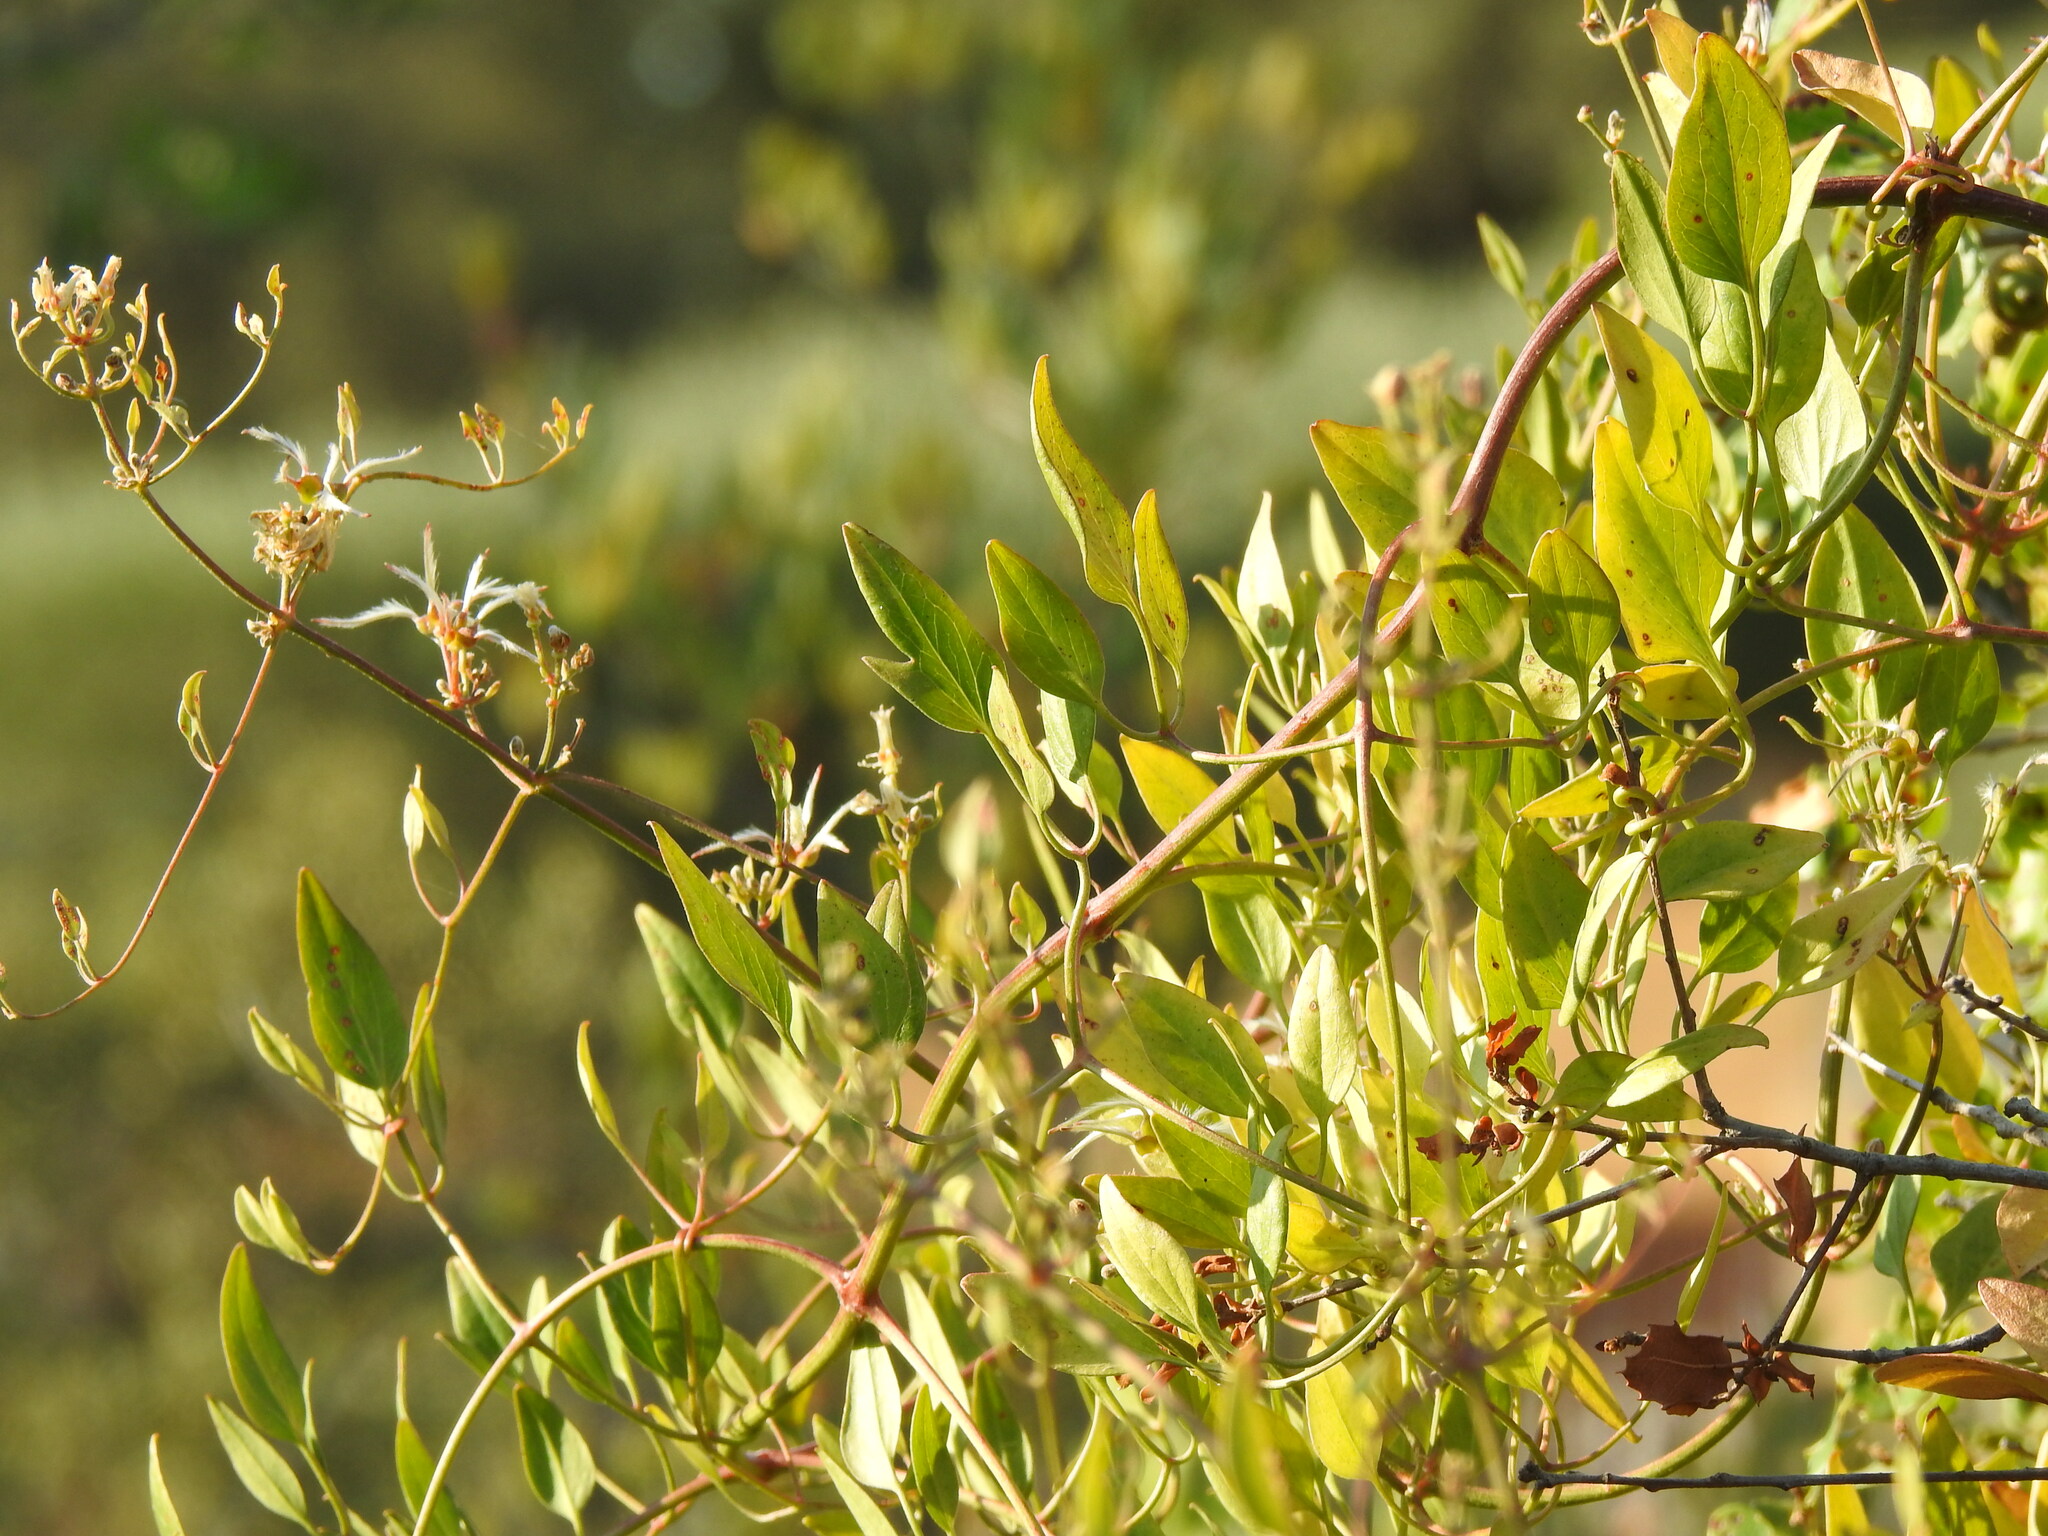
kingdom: Plantae
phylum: Tracheophyta
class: Magnoliopsida
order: Ranunculales
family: Ranunculaceae
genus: Clematis
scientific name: Clematis flammula
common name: Virgin's-bower
